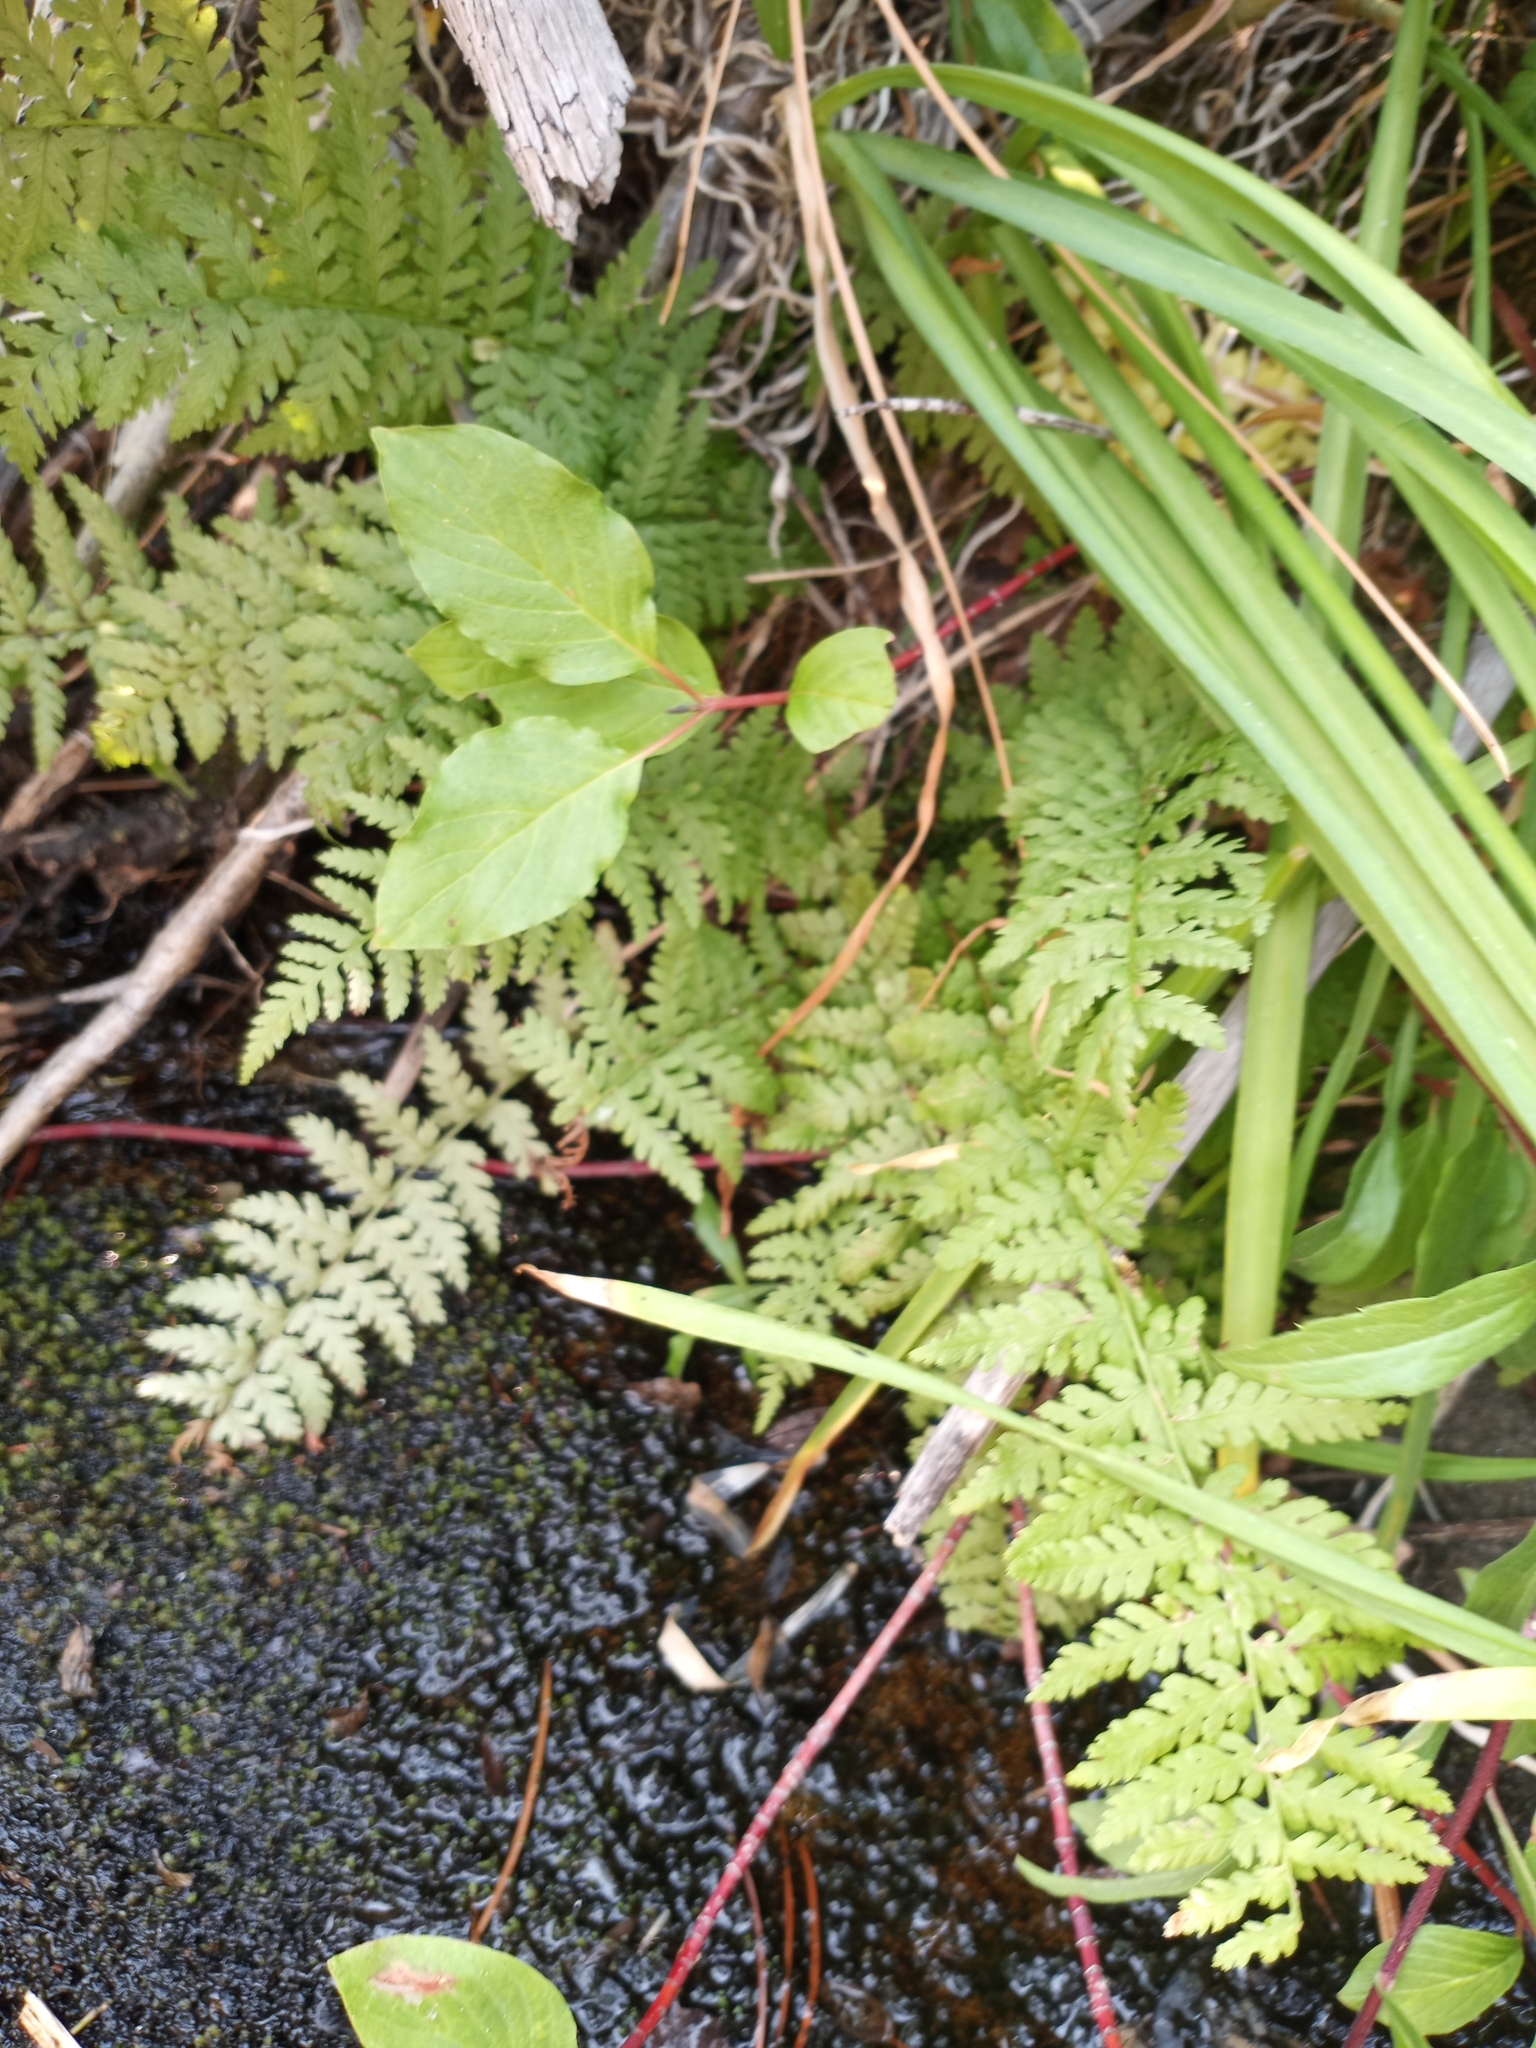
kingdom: Plantae
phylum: Tracheophyta
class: Polypodiopsida
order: Polypodiales
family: Athyriaceae
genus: Athyrium
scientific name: Athyrium filix-femina
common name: Lady fern
